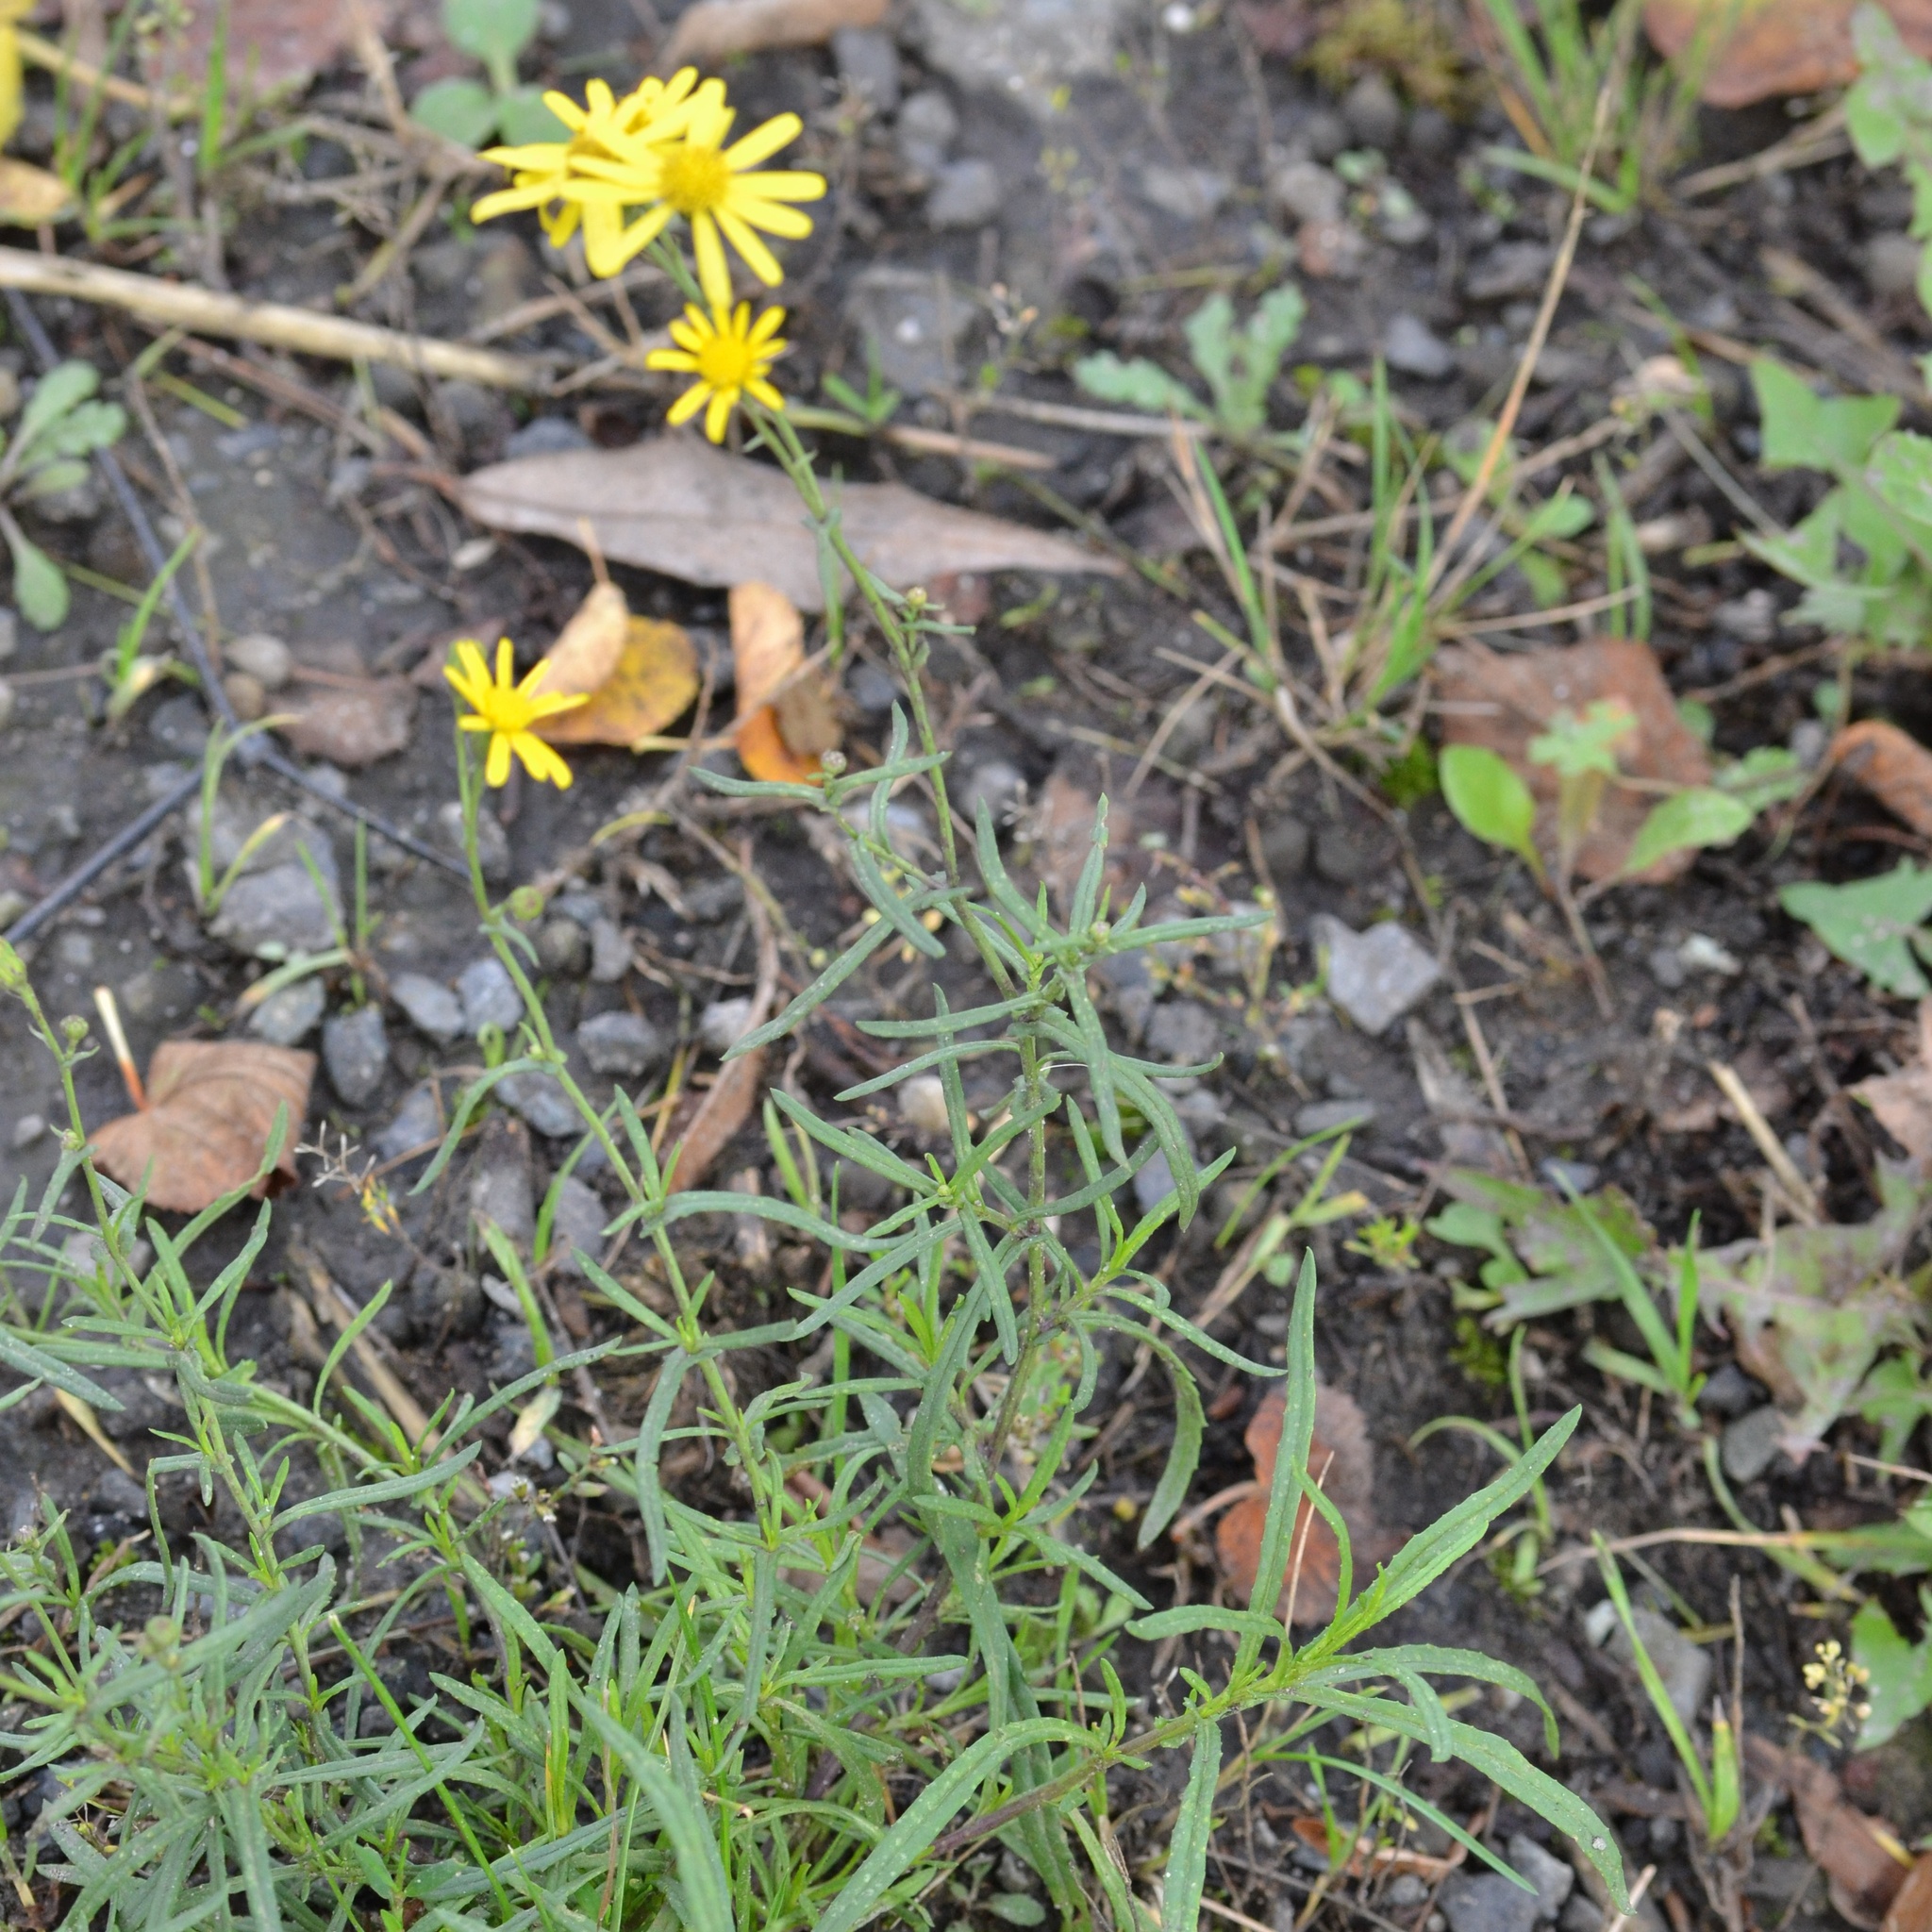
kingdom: Plantae
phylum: Tracheophyta
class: Magnoliopsida
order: Asterales
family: Asteraceae
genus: Senecio
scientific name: Senecio inaequidens
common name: Narrow-leaved ragwort
